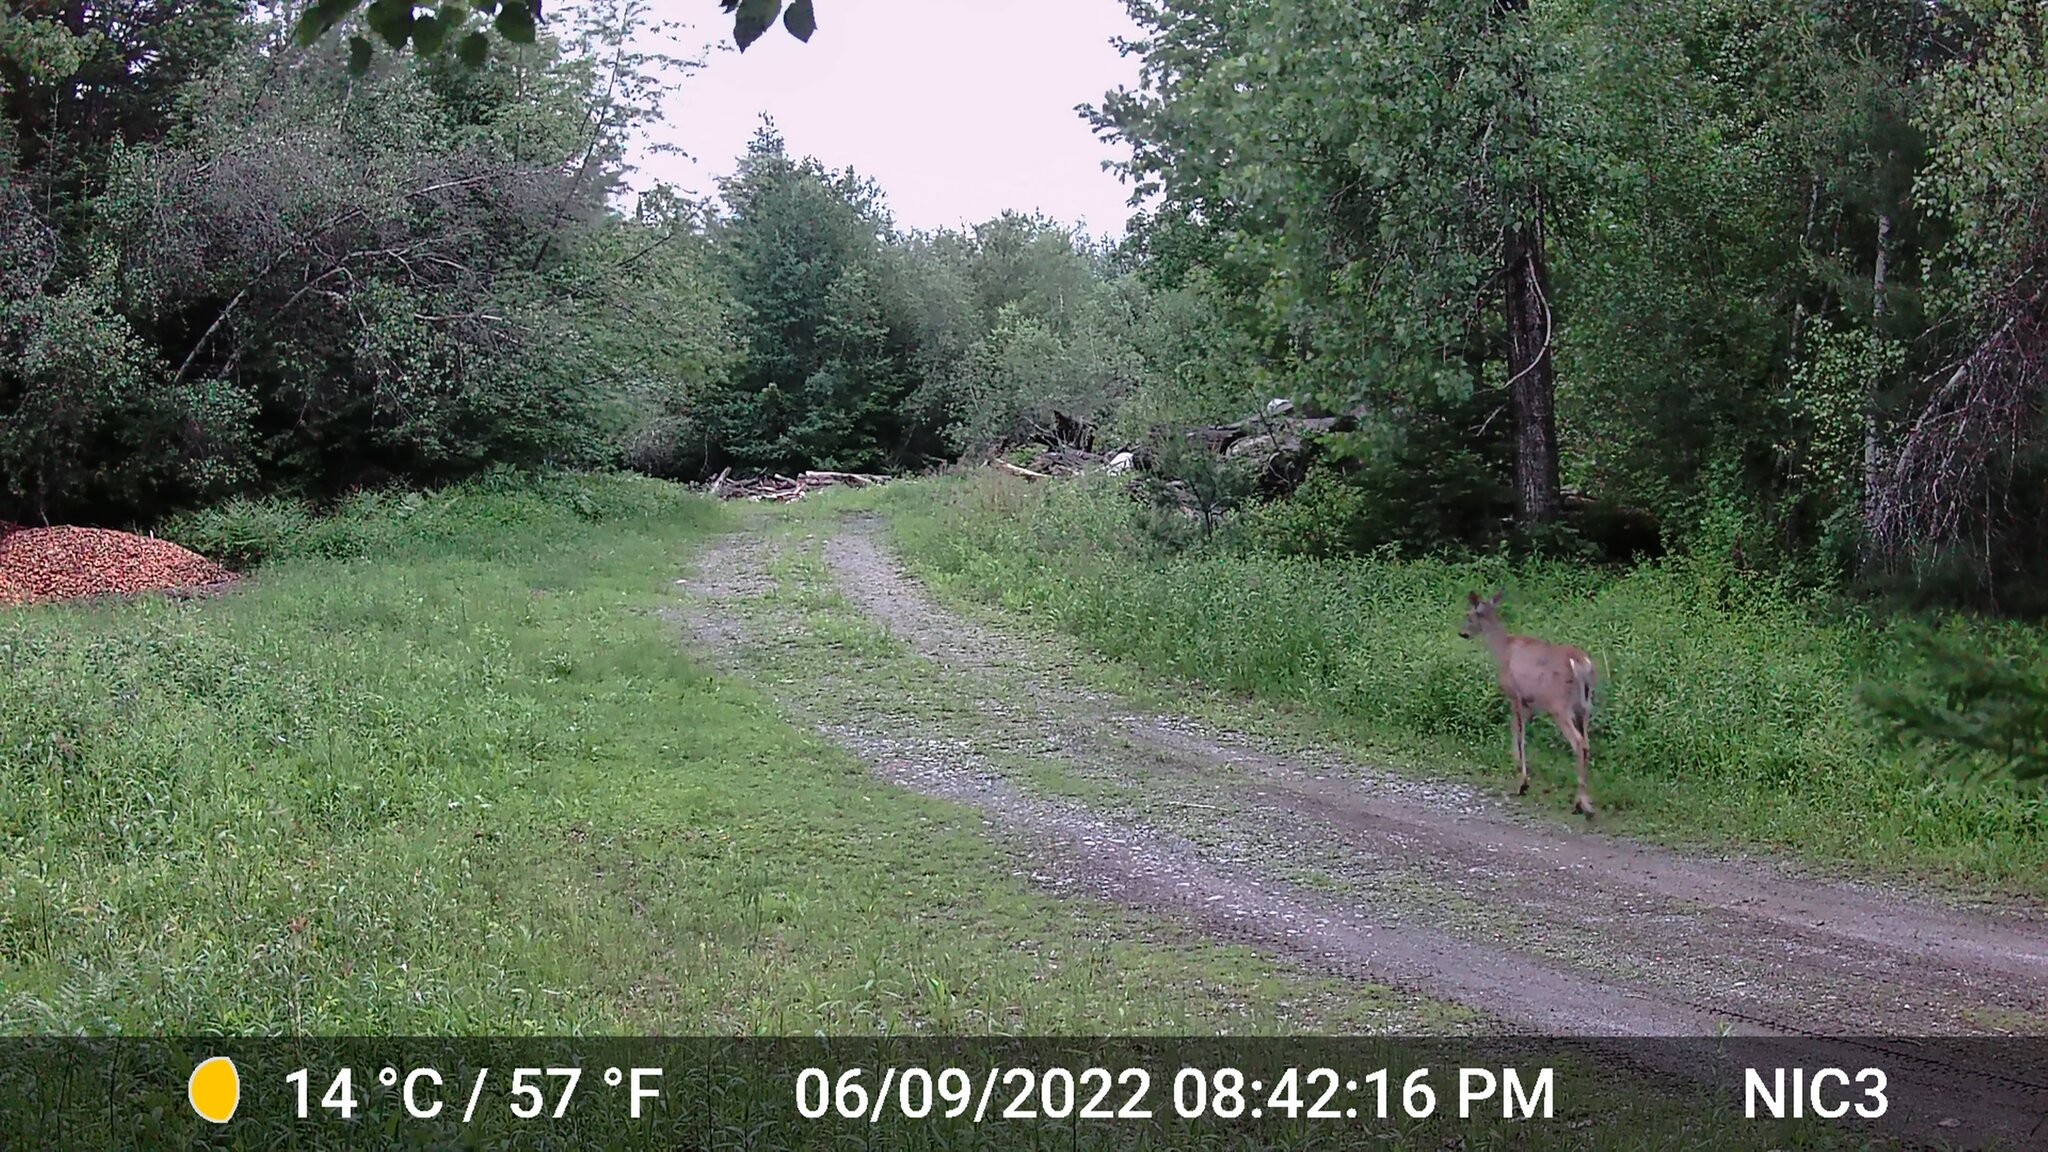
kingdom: Animalia
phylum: Chordata
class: Mammalia
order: Artiodactyla
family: Cervidae
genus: Odocoileus
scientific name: Odocoileus virginianus
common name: White-tailed deer
